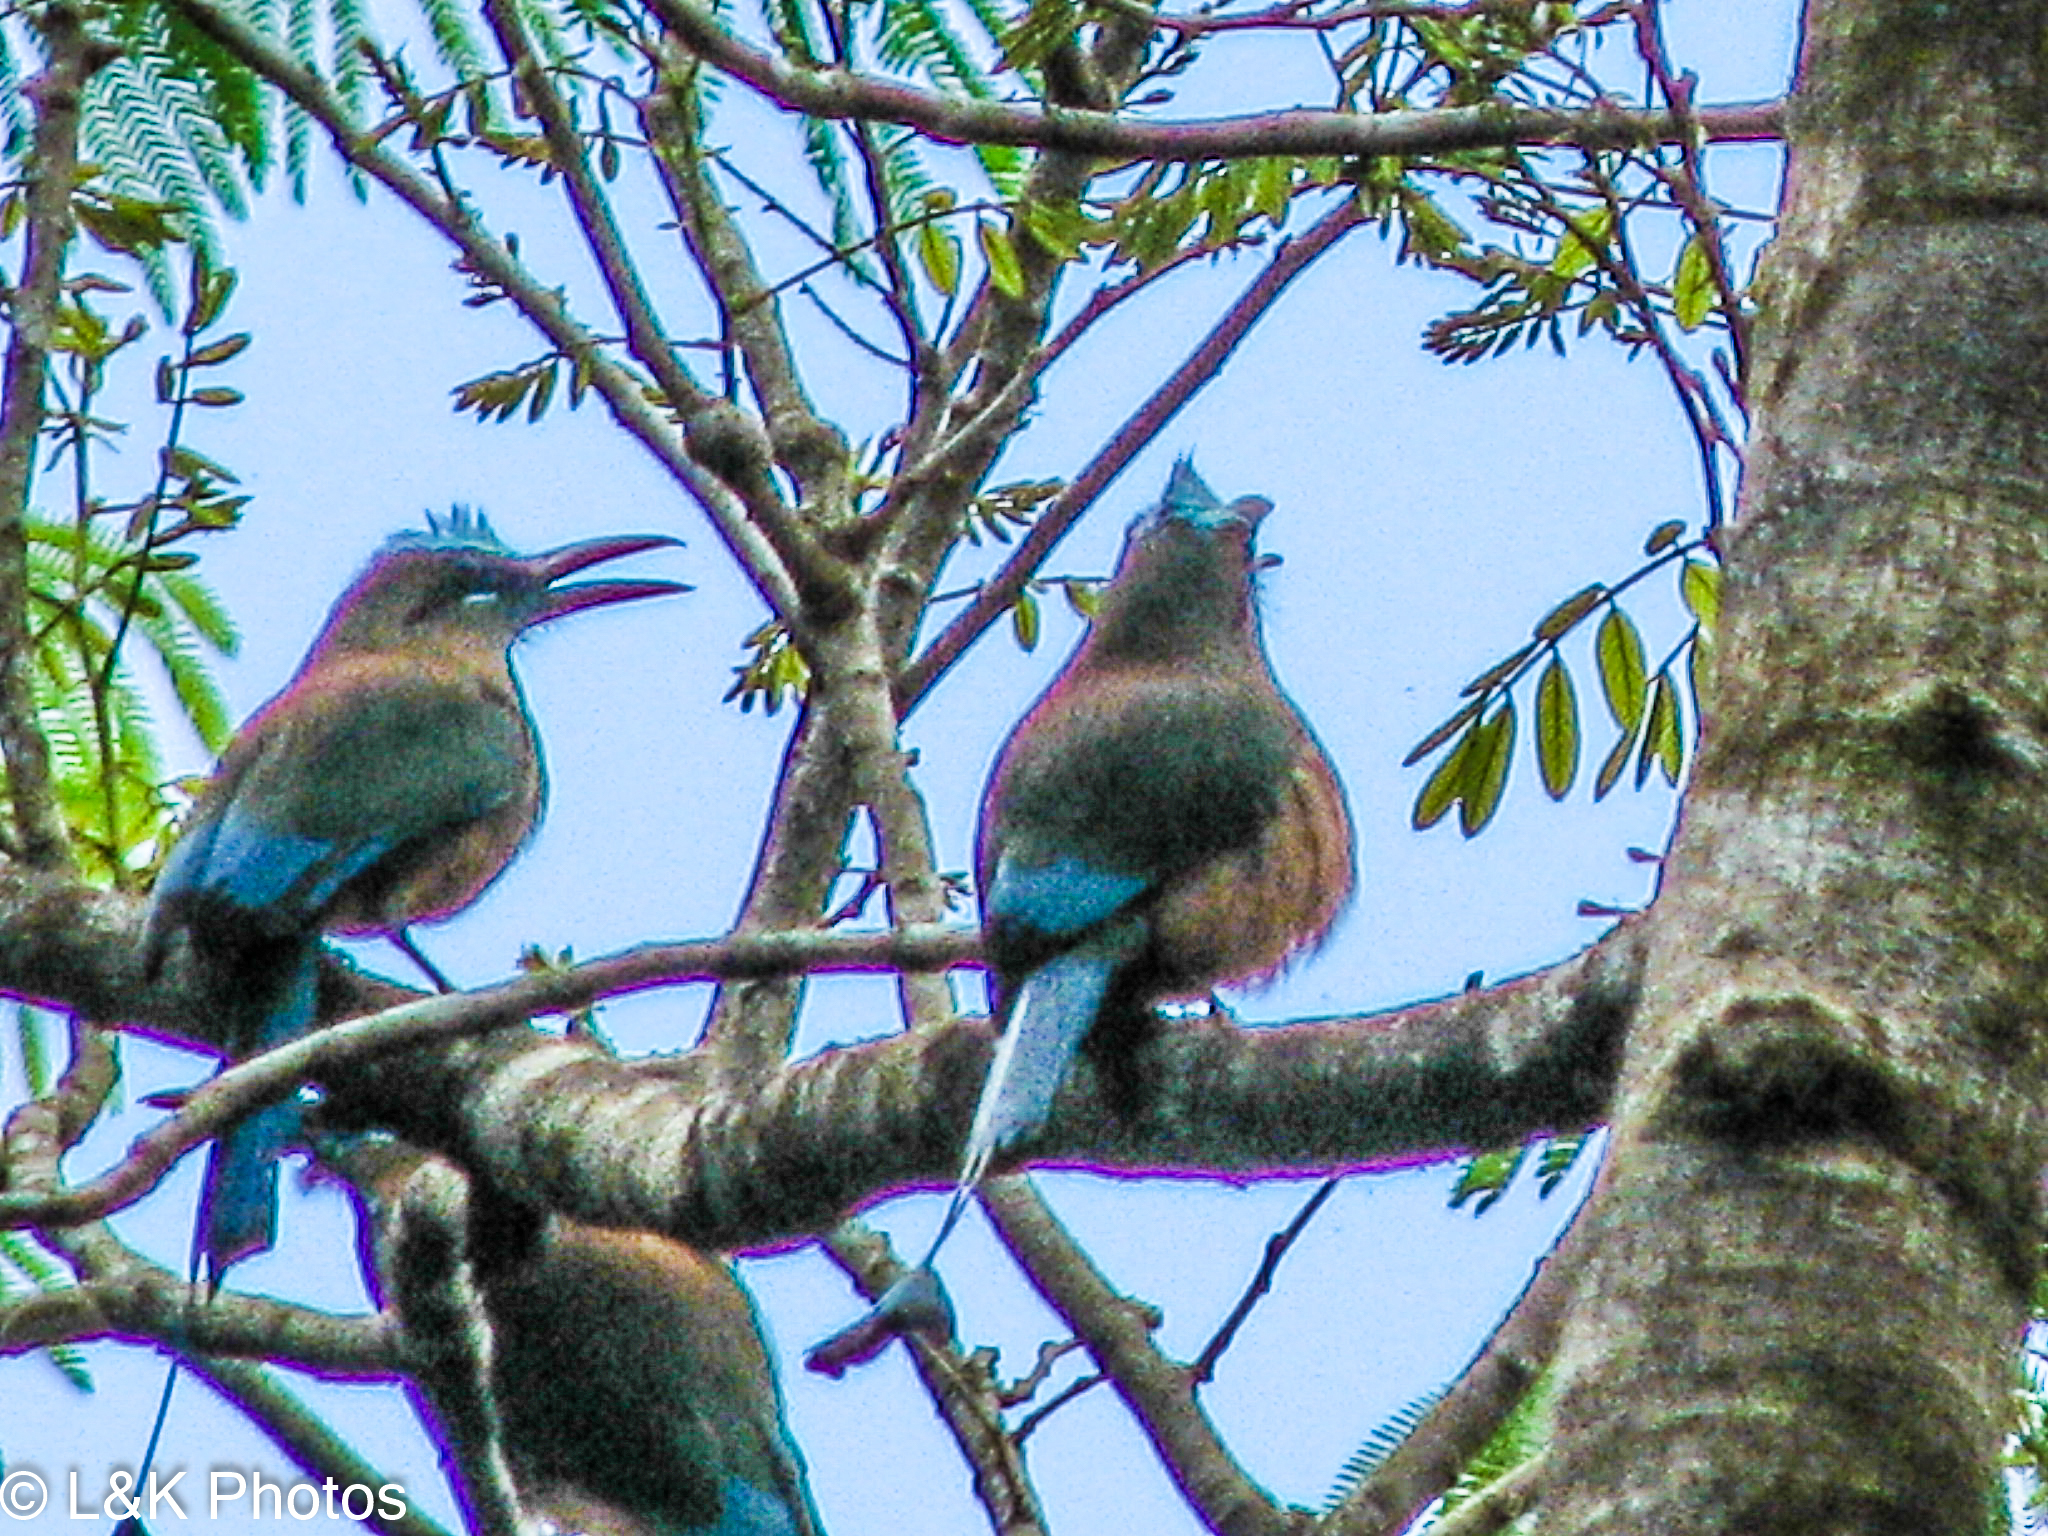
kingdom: Animalia
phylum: Chordata
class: Aves
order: Coraciiformes
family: Momotidae
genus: Eumomota
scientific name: Eumomota superciliosa
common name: Turquoise-browed motmot
